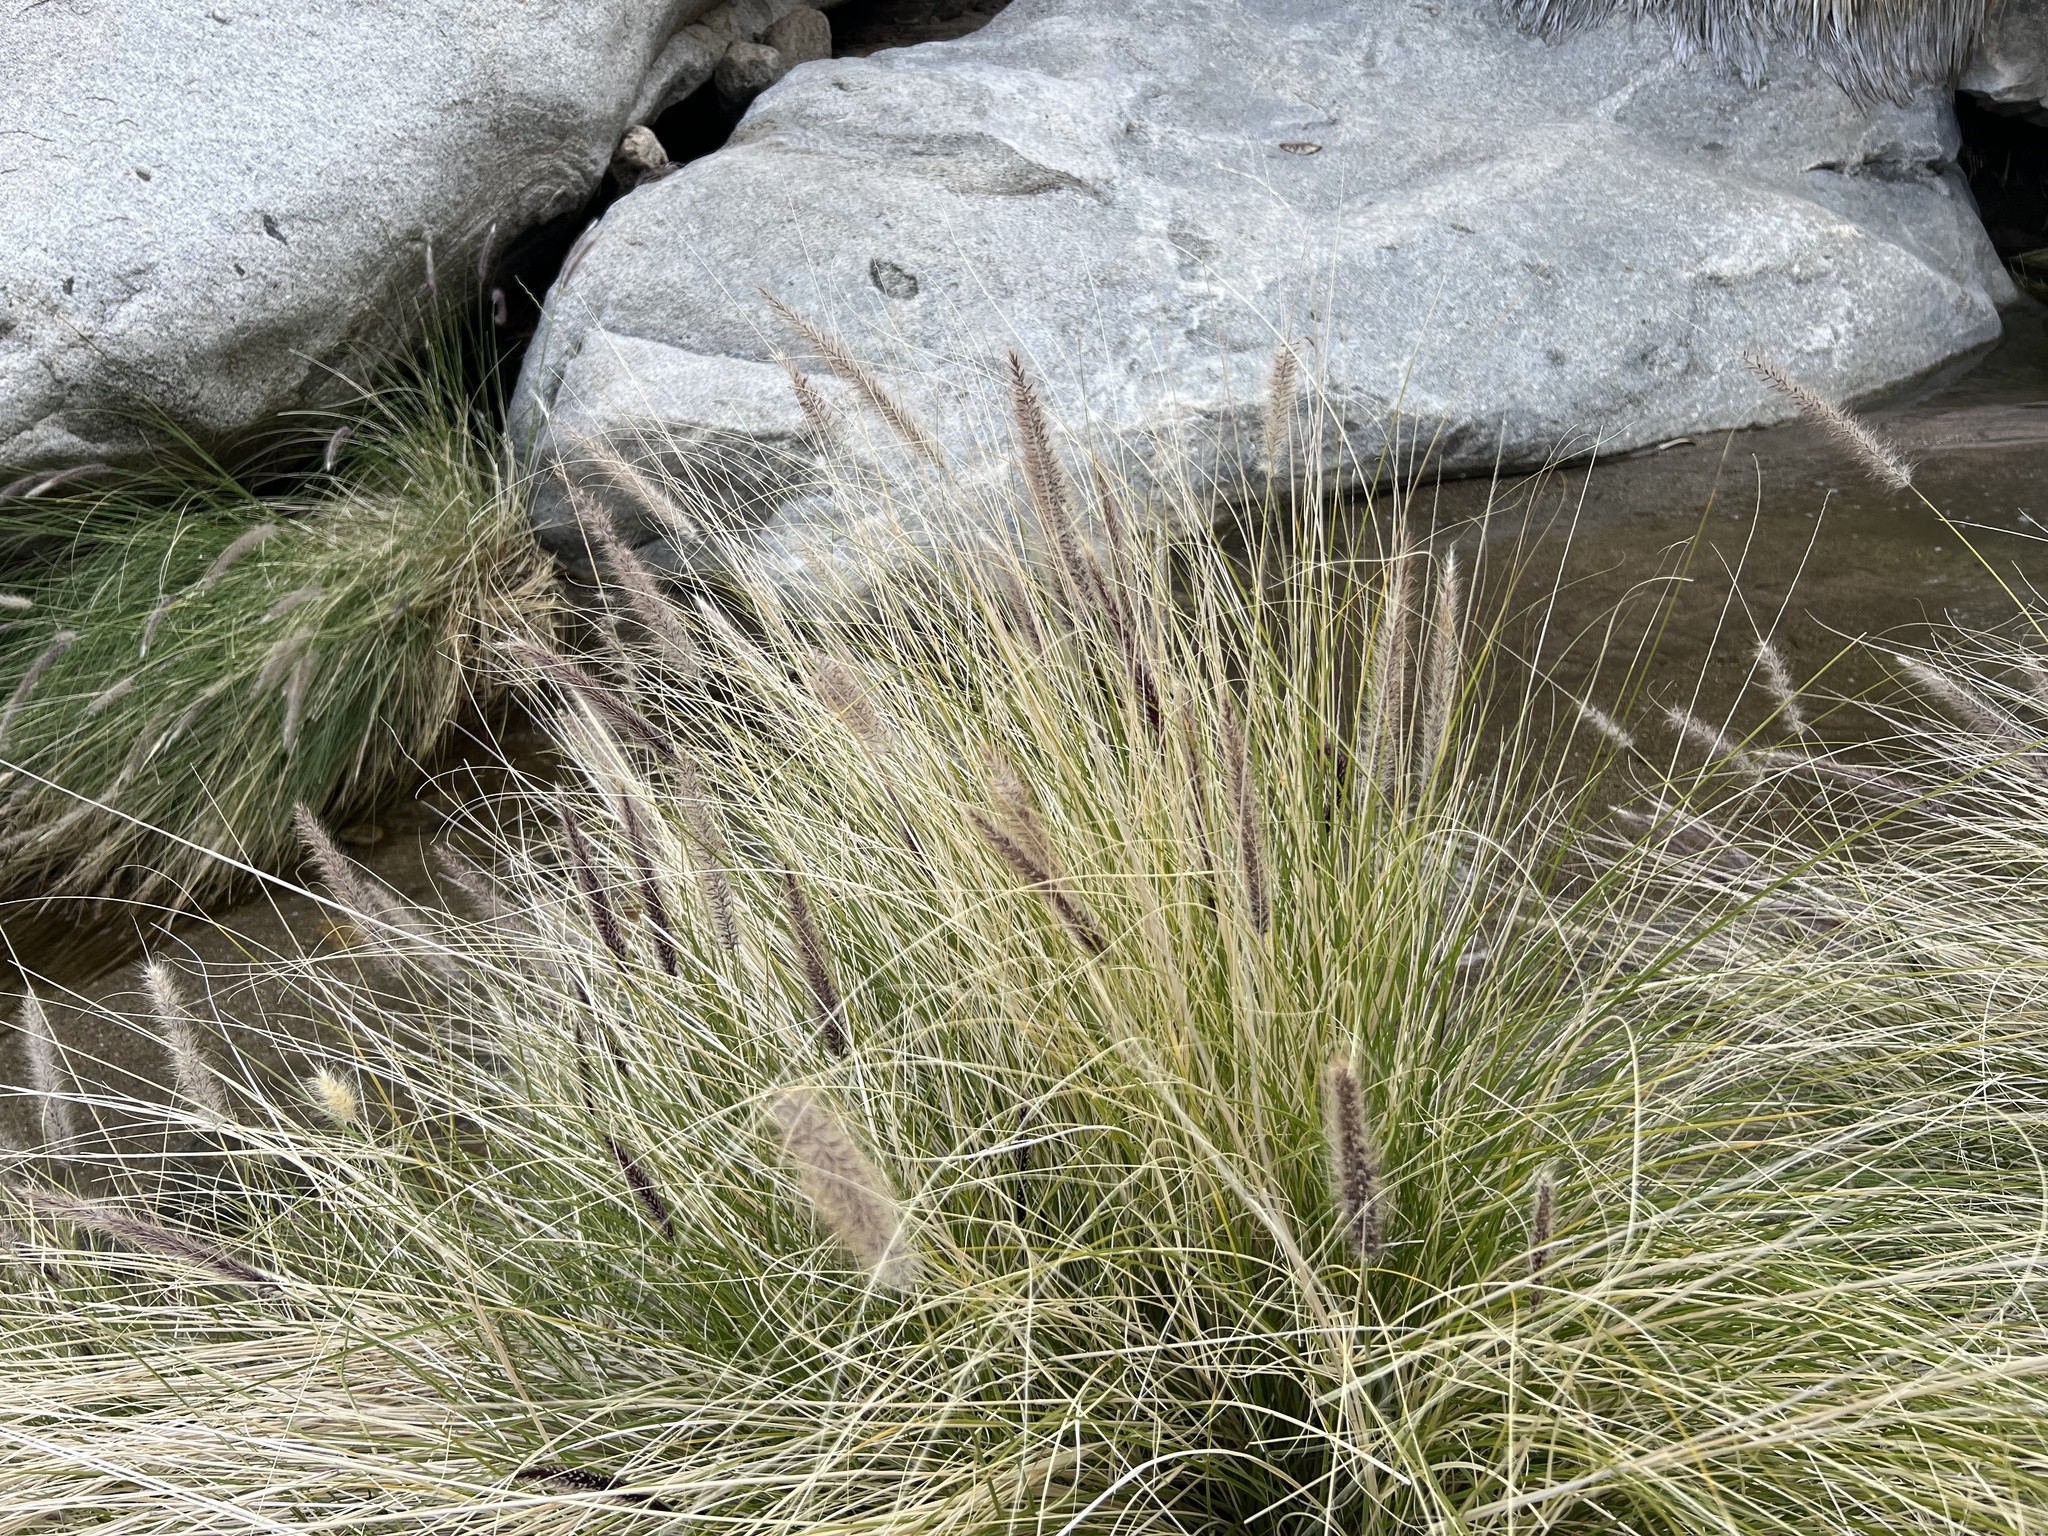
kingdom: Plantae
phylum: Tracheophyta
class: Liliopsida
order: Poales
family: Poaceae
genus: Cenchrus
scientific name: Cenchrus setaceus
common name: Crimson fountaingrass
